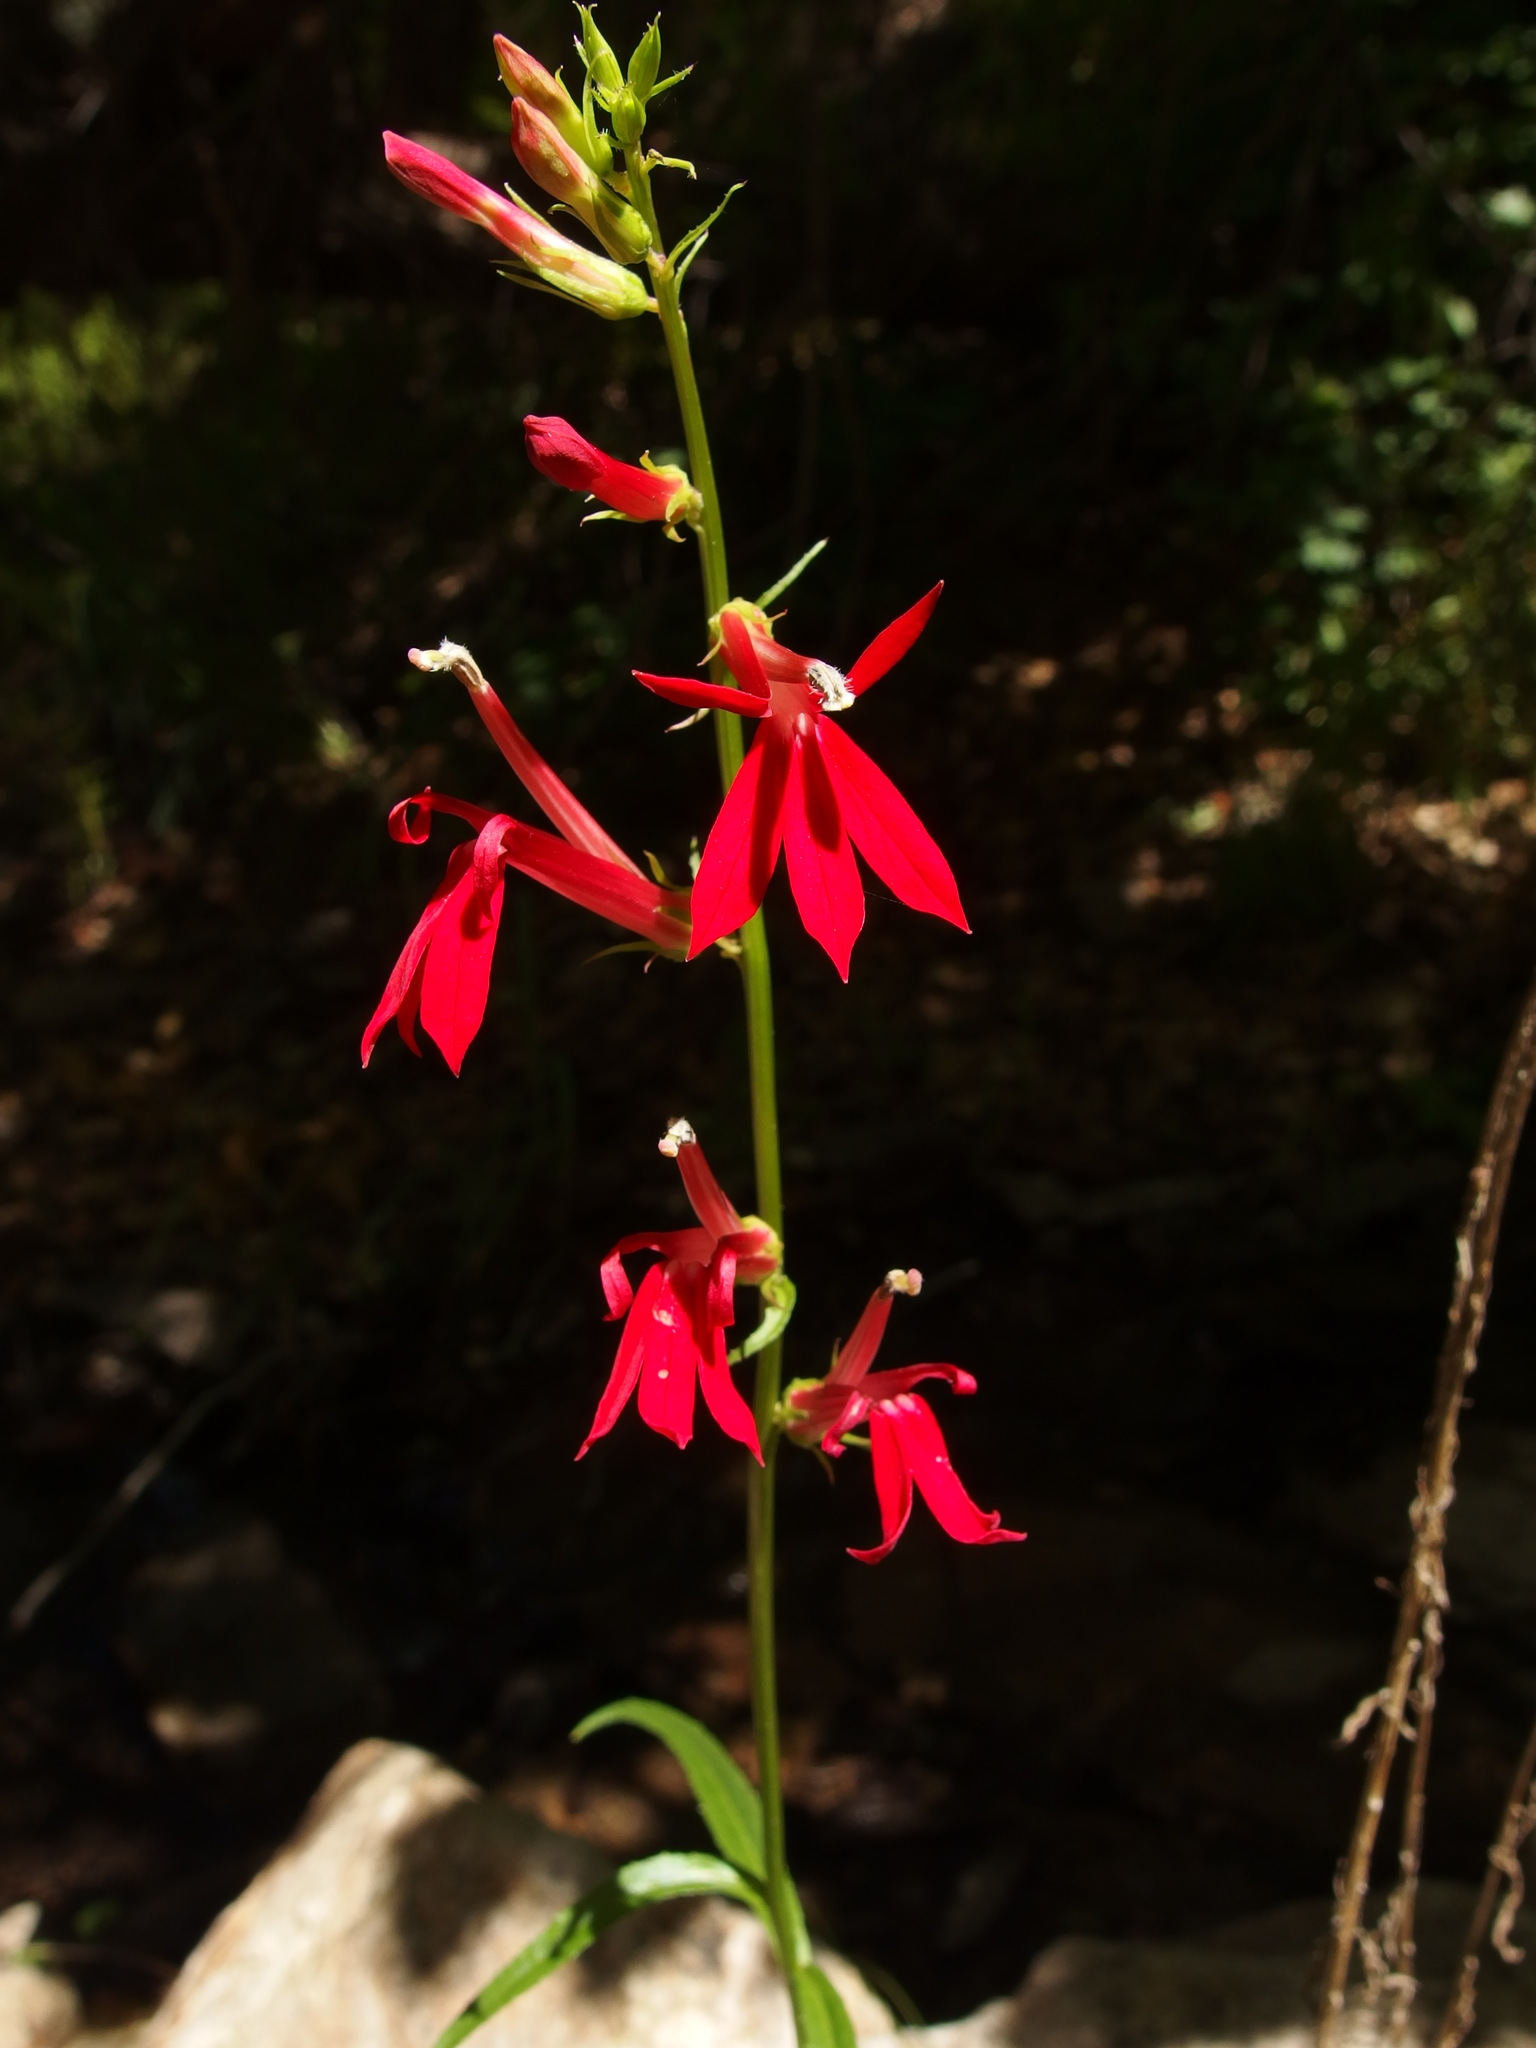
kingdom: Plantae
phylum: Tracheophyta
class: Magnoliopsida
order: Asterales
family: Campanulaceae
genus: Lobelia
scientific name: Lobelia cardinalis
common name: Cardinal flower
